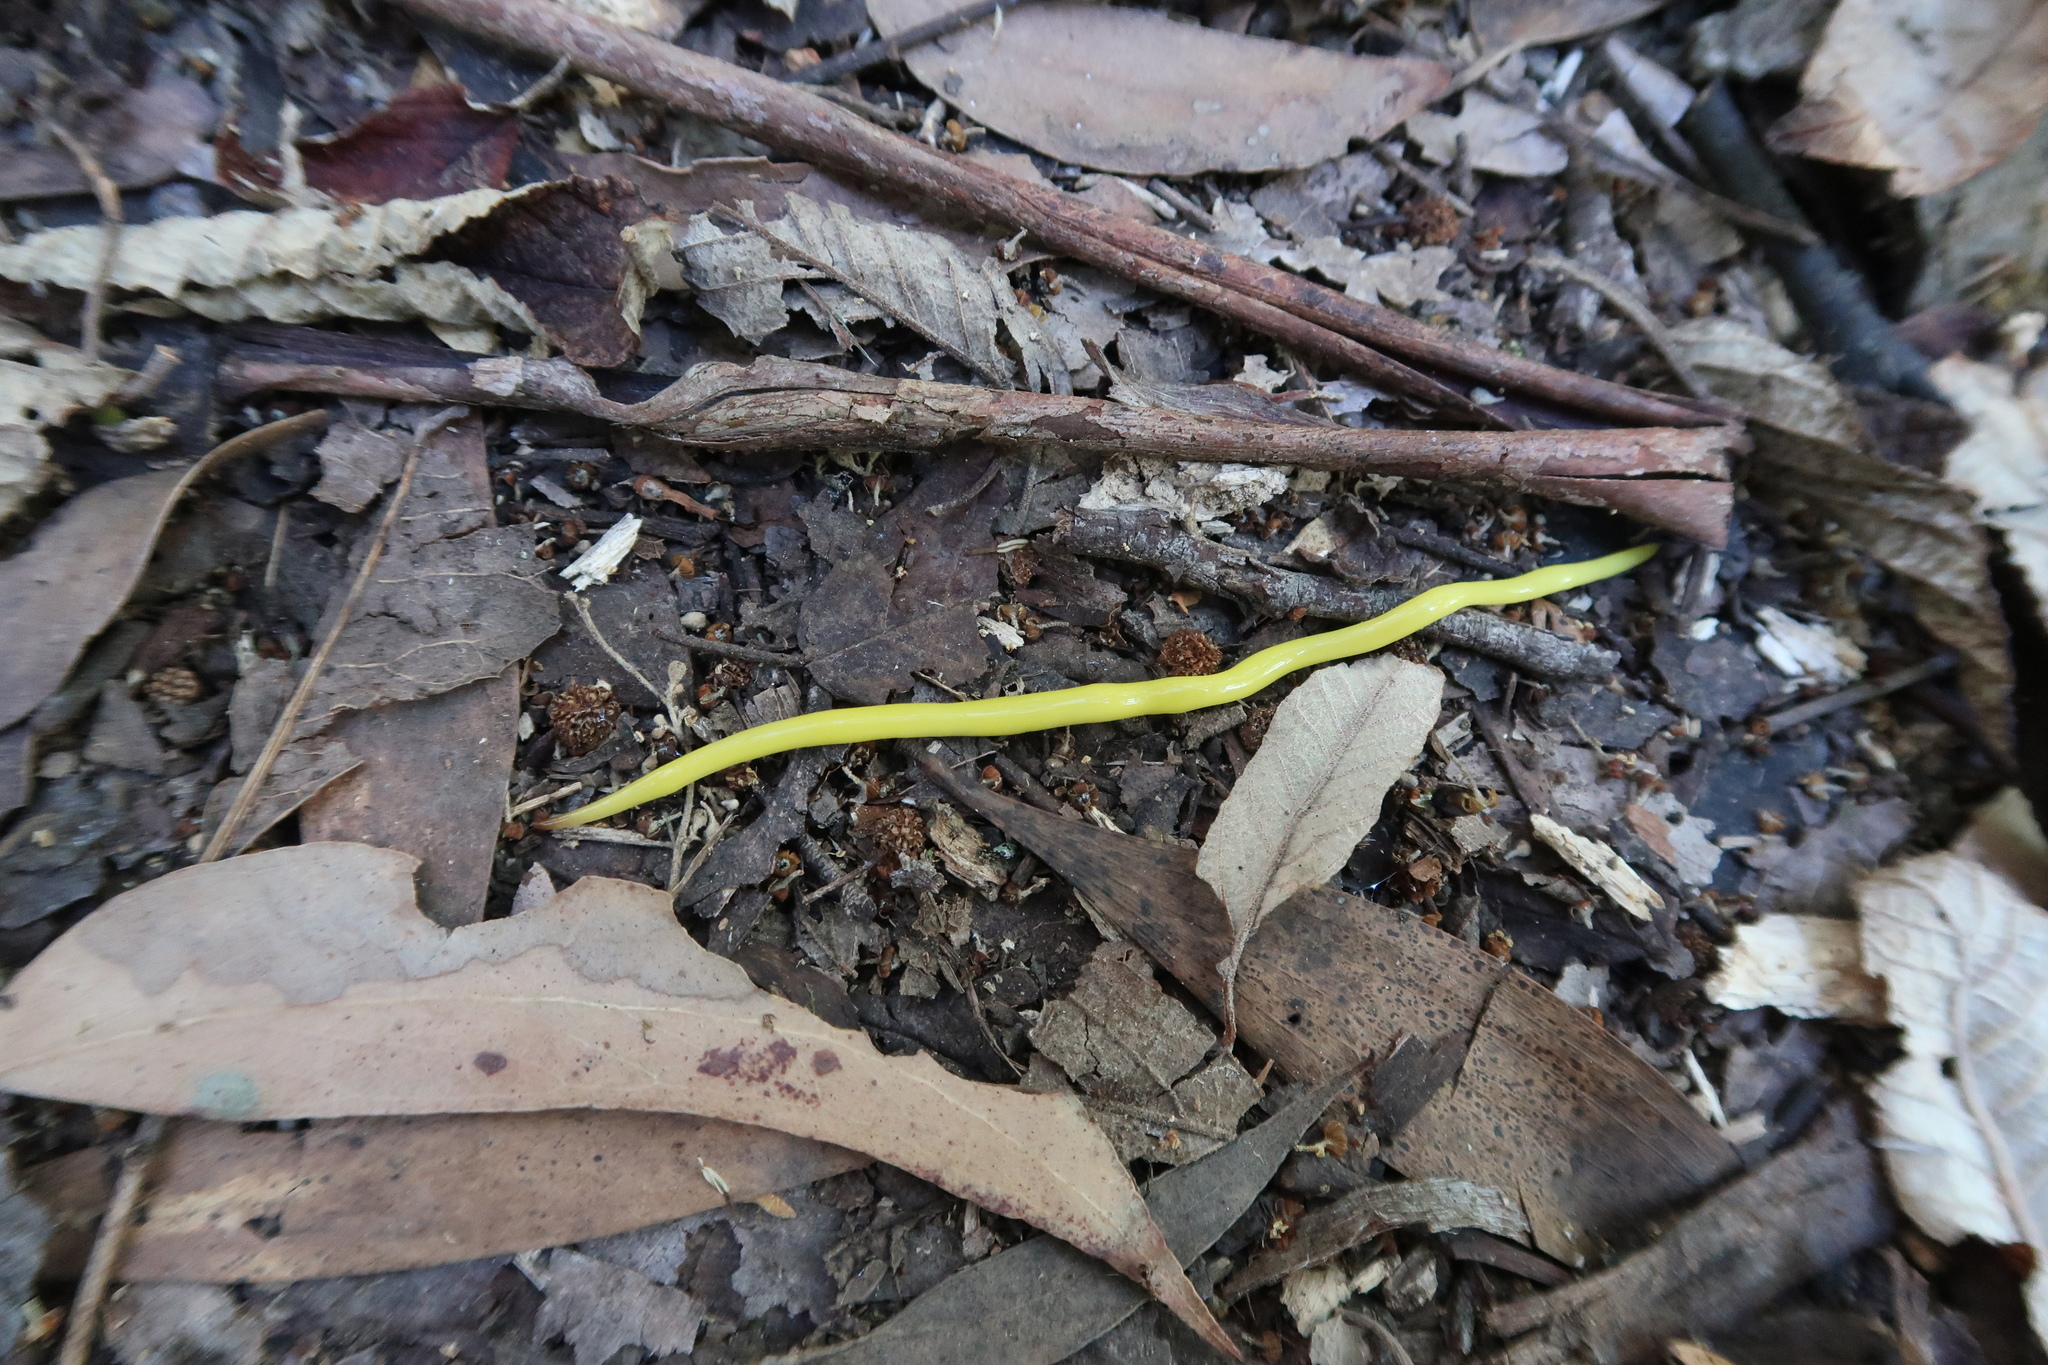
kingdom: Animalia
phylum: Platyhelminthes
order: Tricladida
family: Geoplanidae
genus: Fletchamia
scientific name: Fletchamia sugdeni
